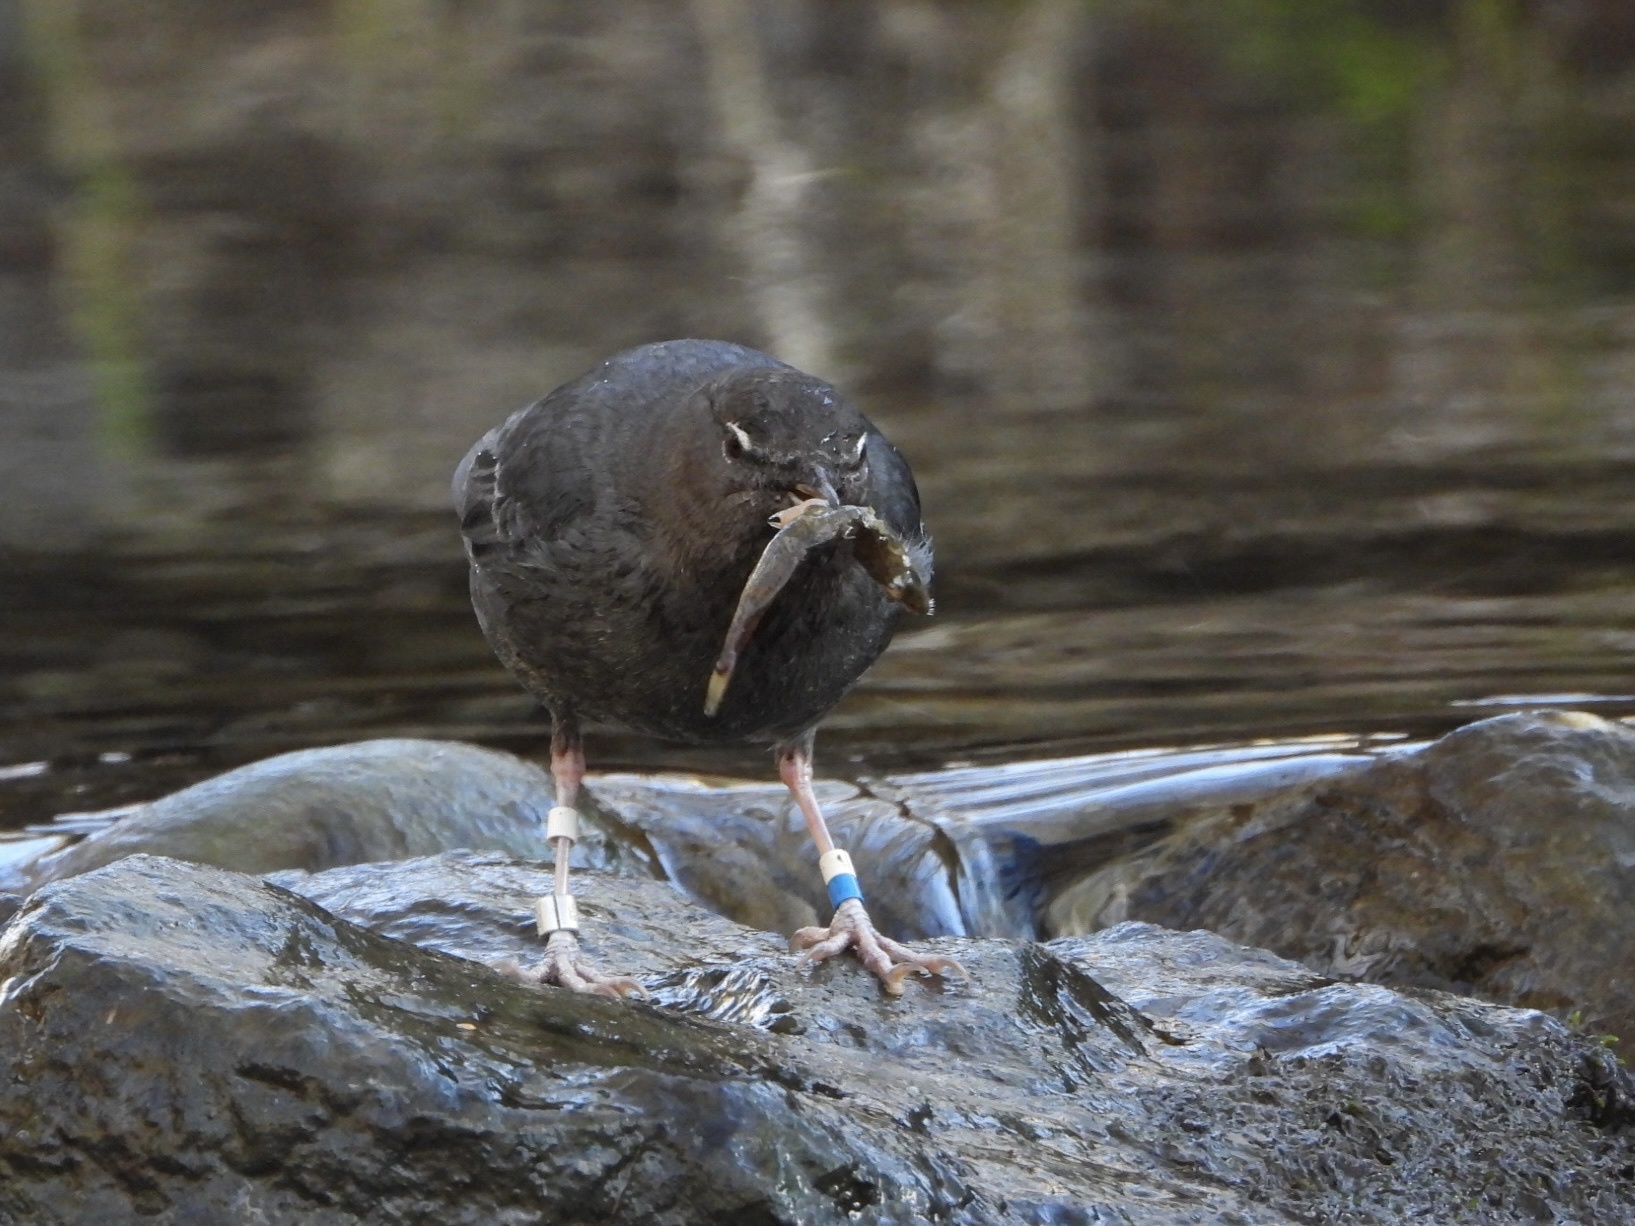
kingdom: Animalia
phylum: Chordata
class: Aves
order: Passeriformes
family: Cinclidae
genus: Cinclus
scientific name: Cinclus mexicanus
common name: American dipper
